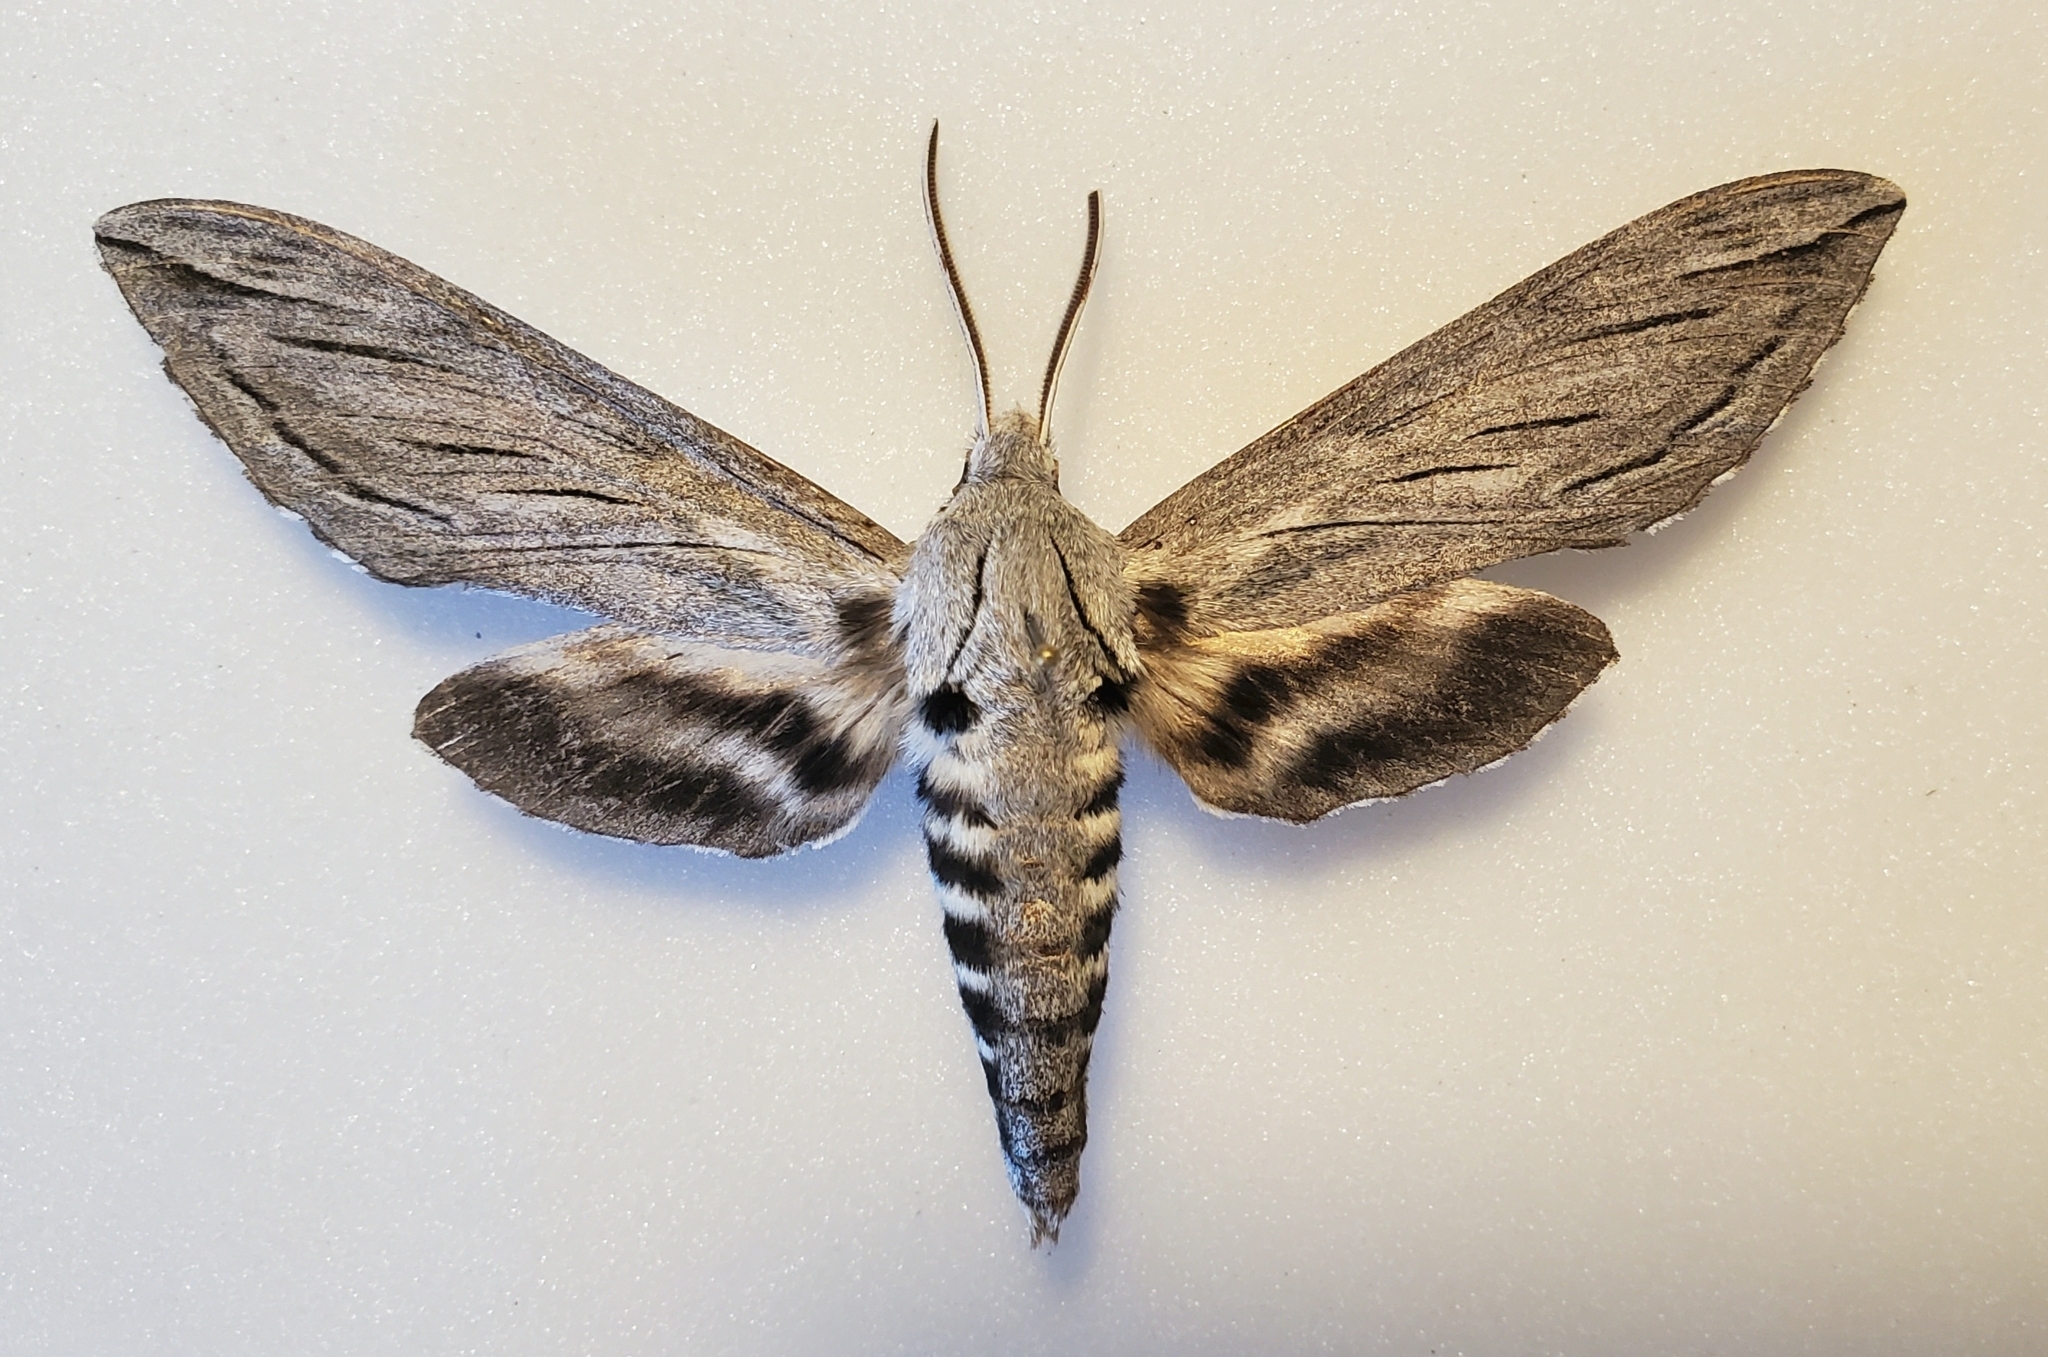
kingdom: Animalia
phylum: Arthropoda
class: Insecta
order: Lepidoptera
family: Sphingidae
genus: Sphinx
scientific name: Sphinx chersis
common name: Great ash sphinx
